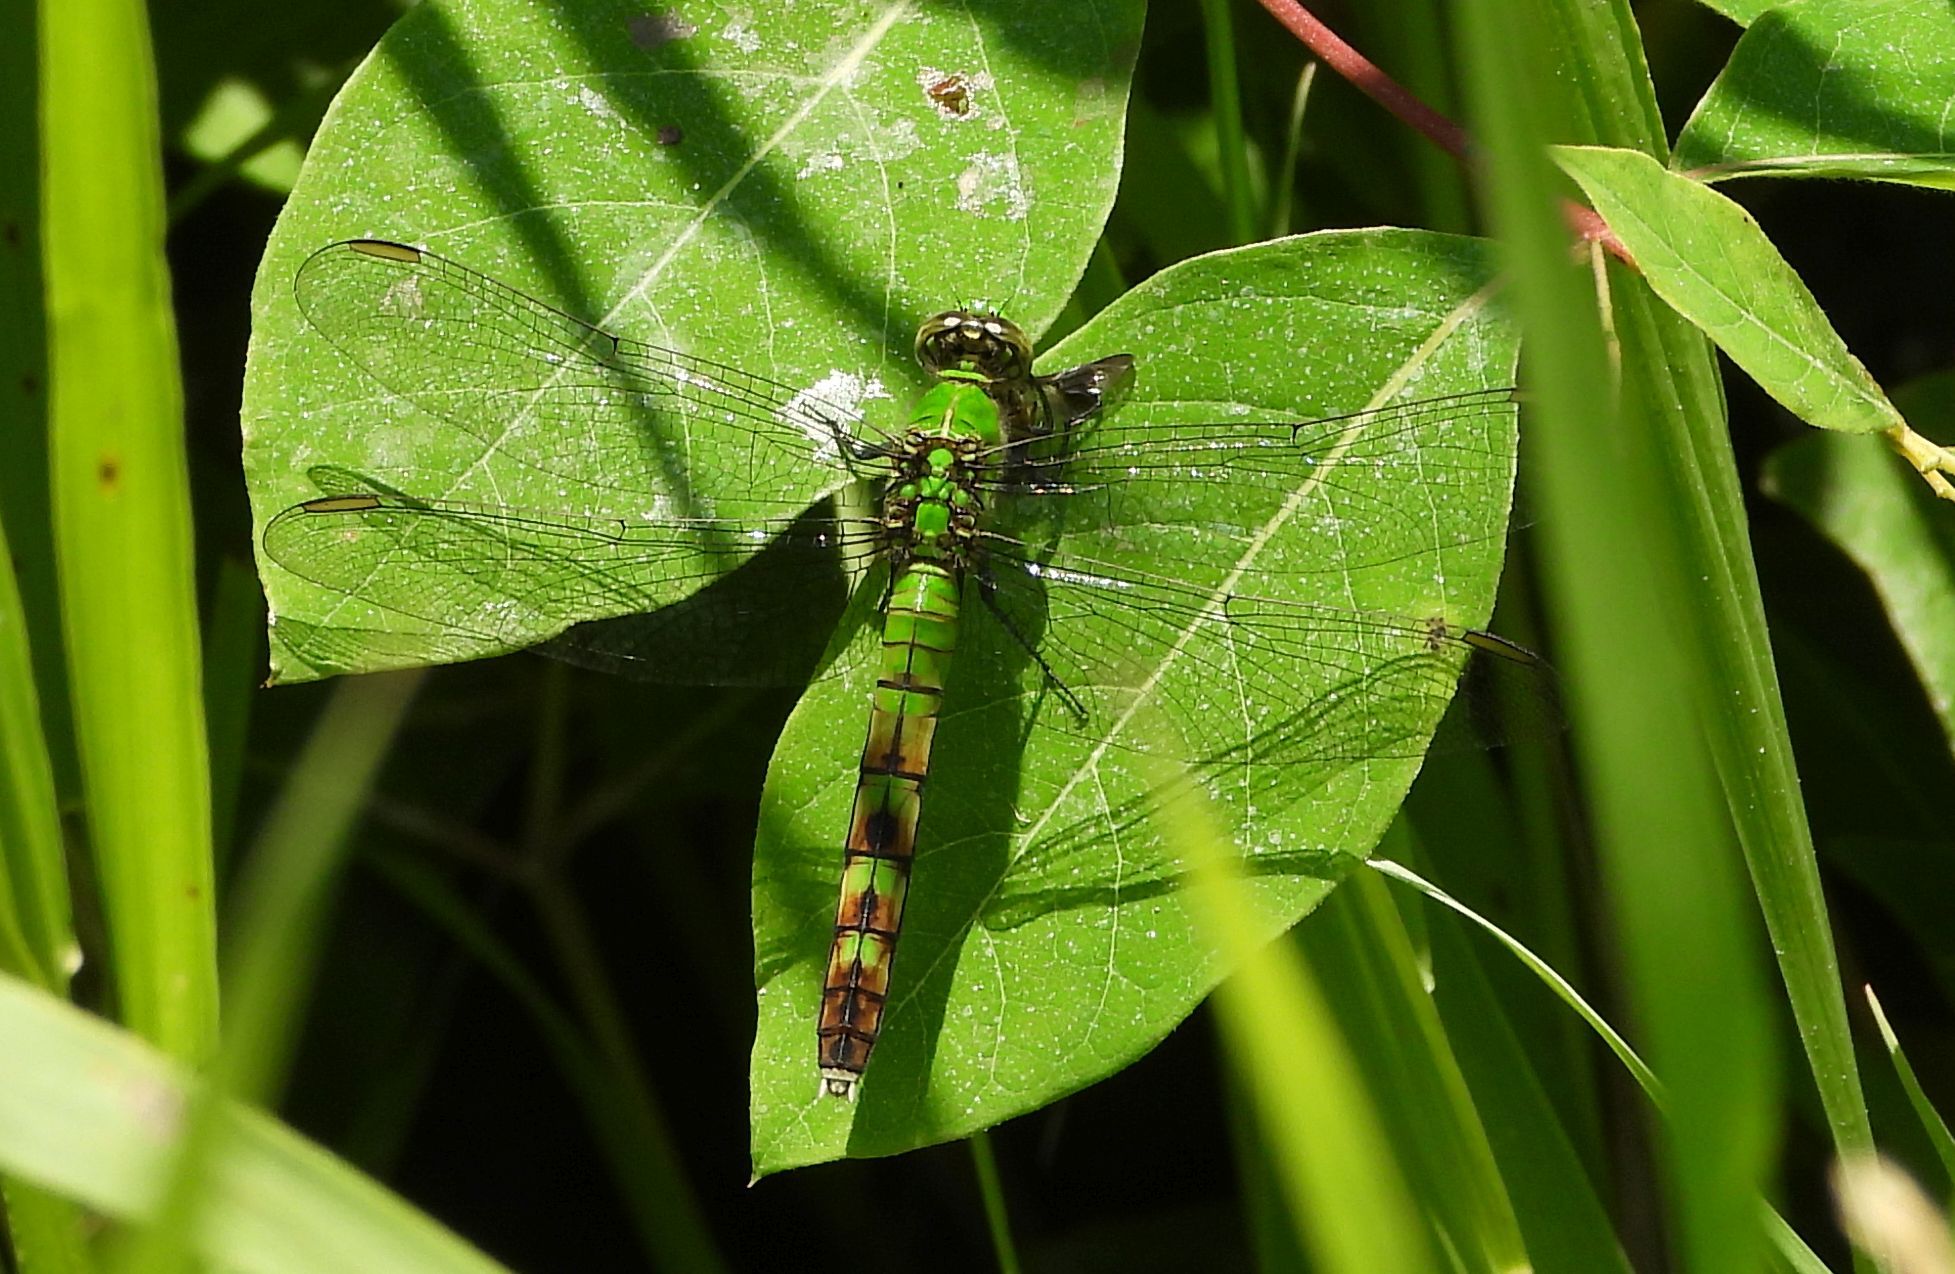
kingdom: Animalia
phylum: Arthropoda
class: Insecta
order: Odonata
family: Libellulidae
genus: Erythemis
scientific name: Erythemis simplicicollis
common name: Eastern pondhawk
